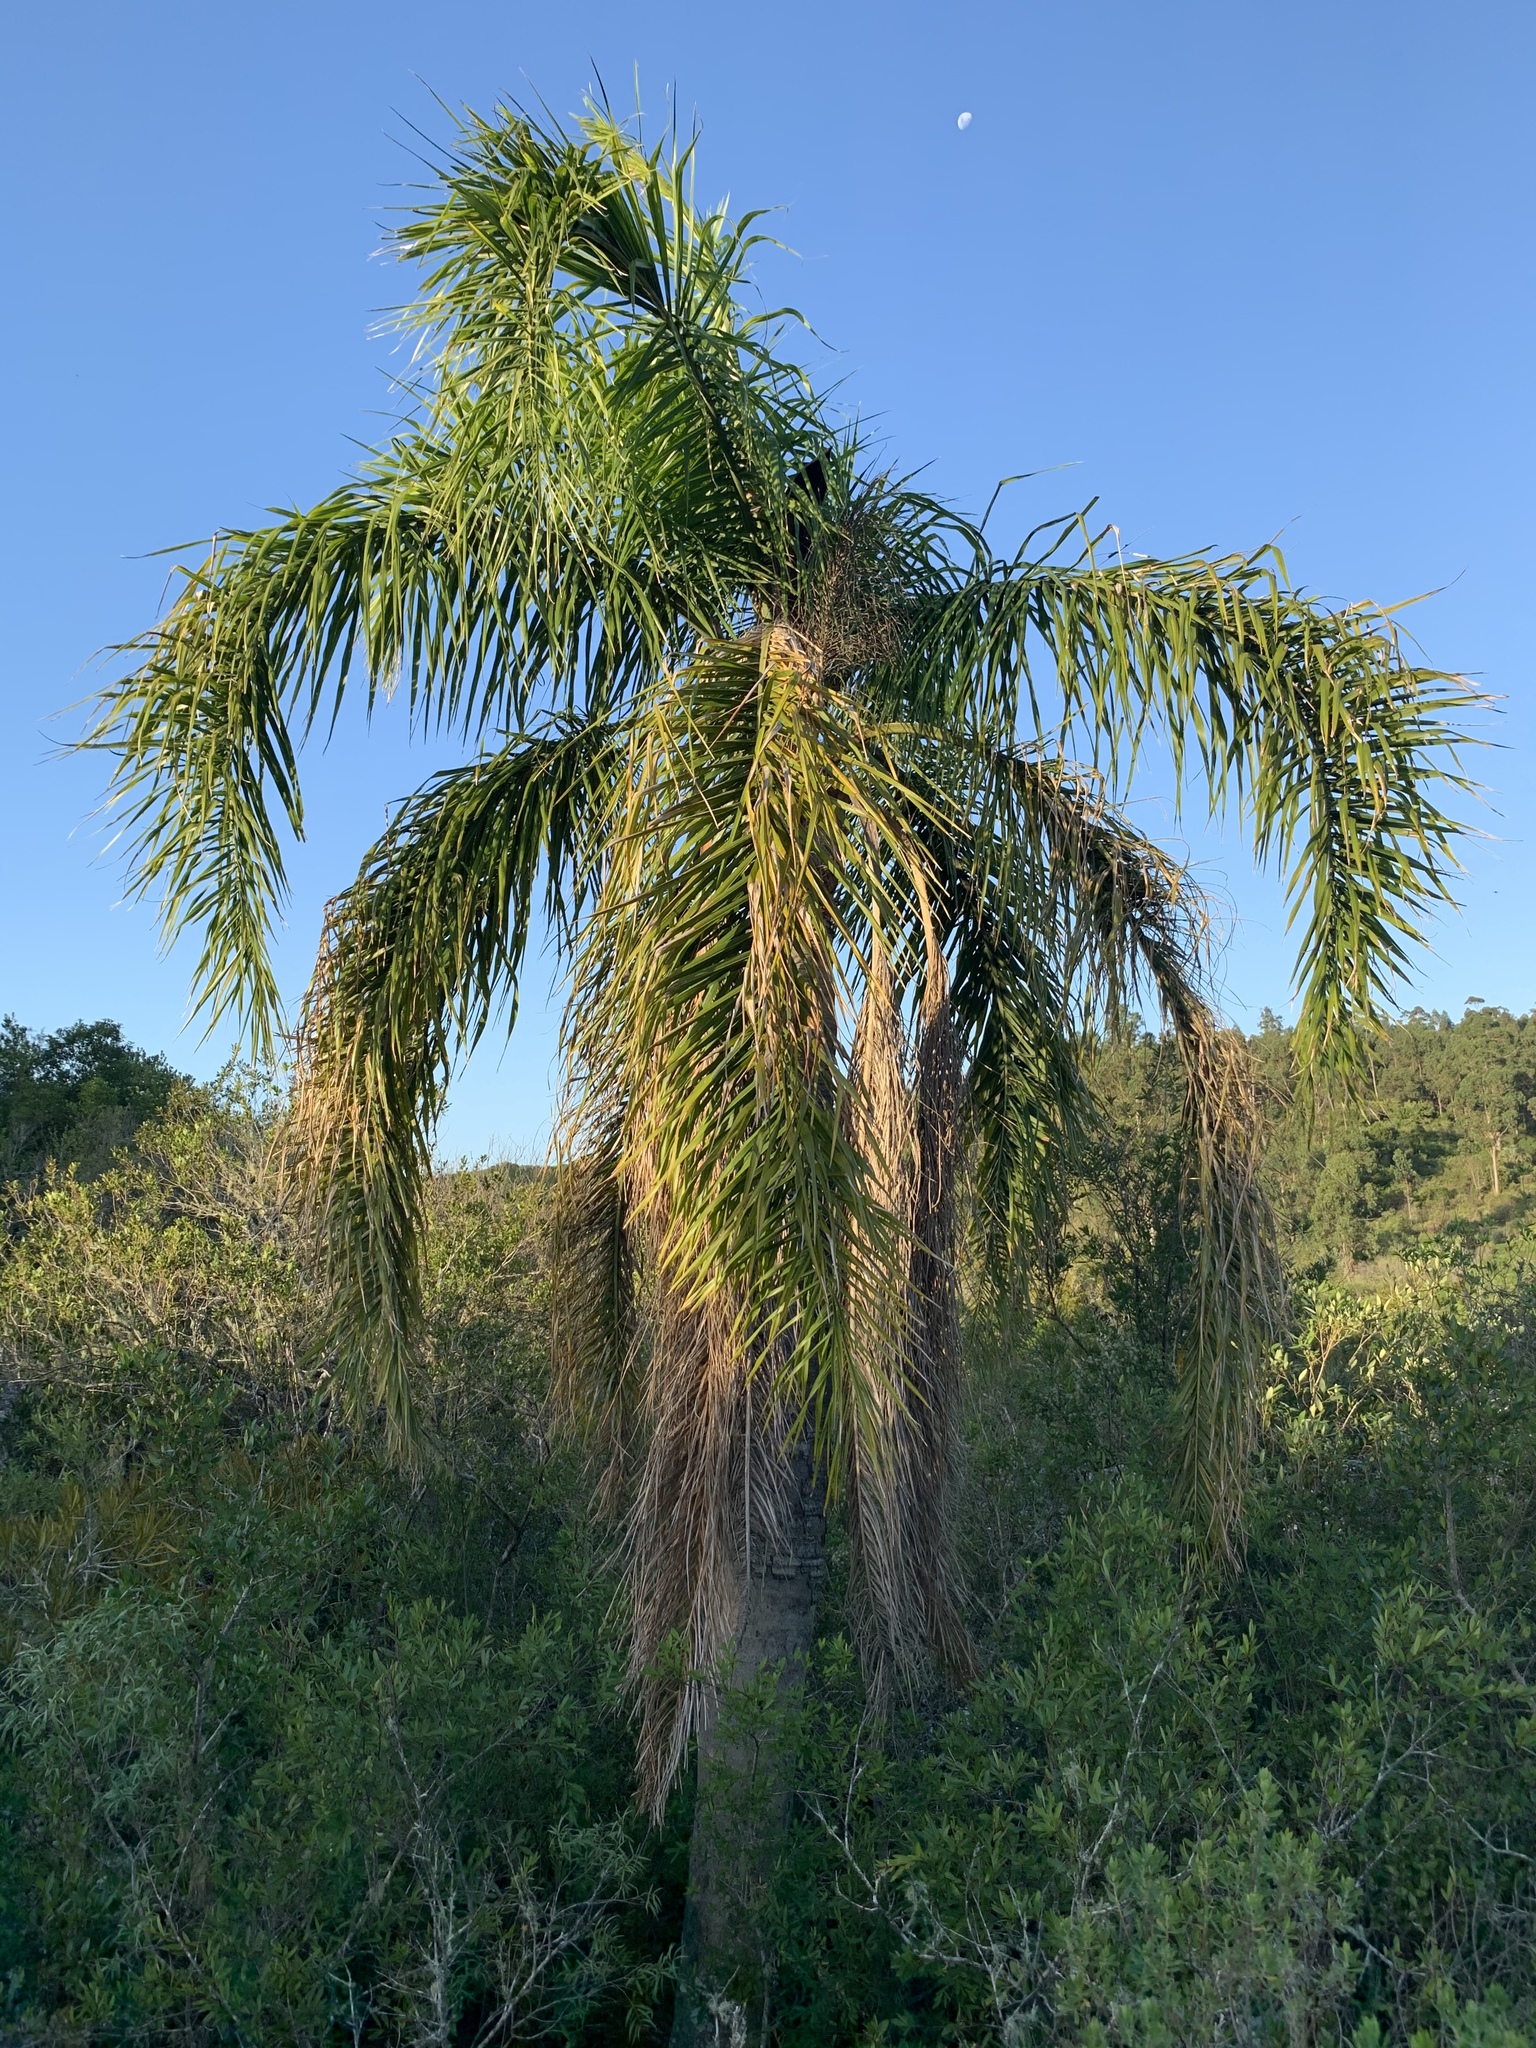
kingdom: Plantae
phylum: Tracheophyta
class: Liliopsida
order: Arecales
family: Arecaceae
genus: Syagrus
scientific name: Syagrus romanzoffiana
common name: Queen palm
